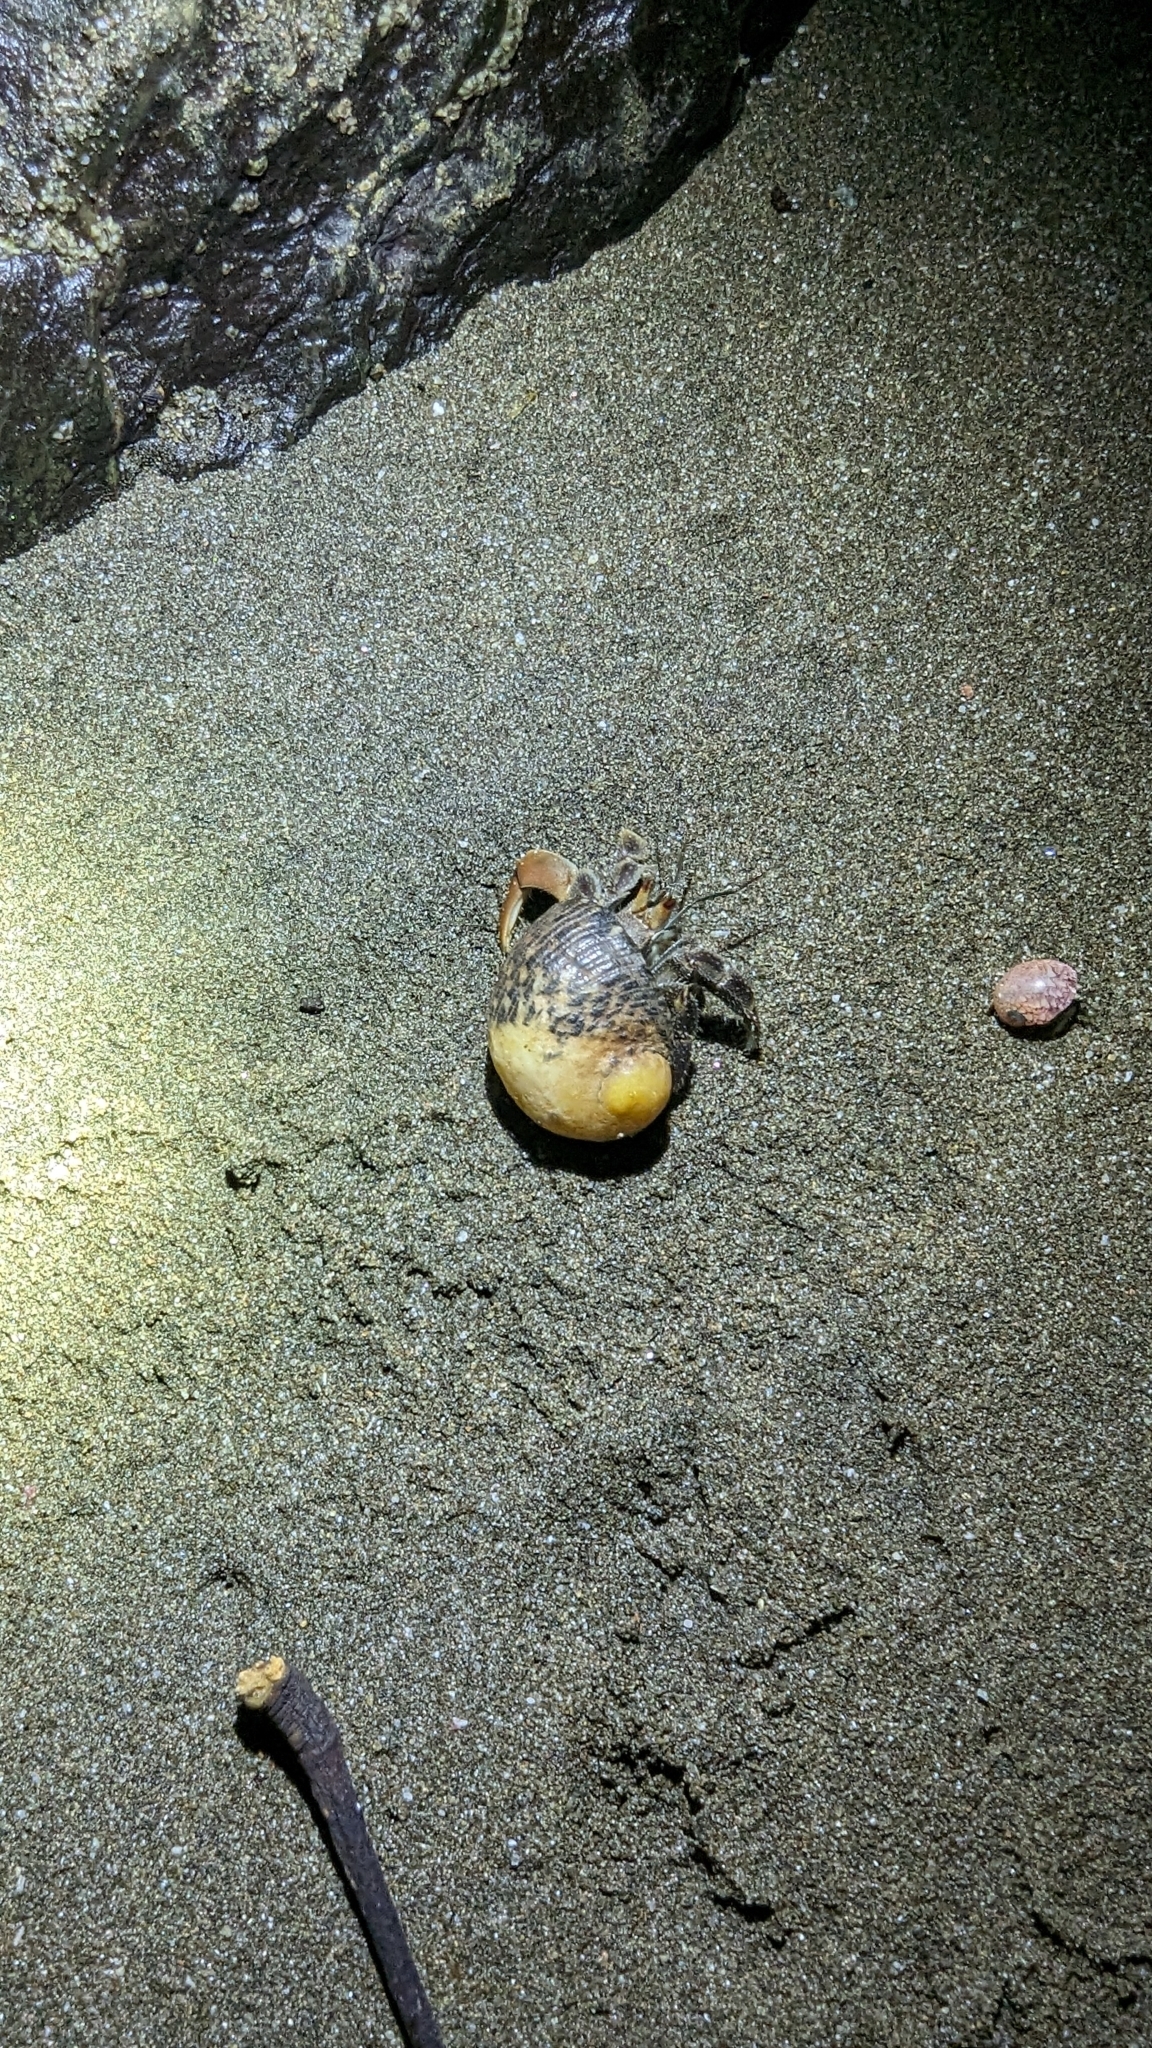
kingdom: Animalia
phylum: Arthropoda
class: Malacostraca
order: Decapoda
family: Coenobitidae
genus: Coenobita
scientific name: Coenobita compressus
